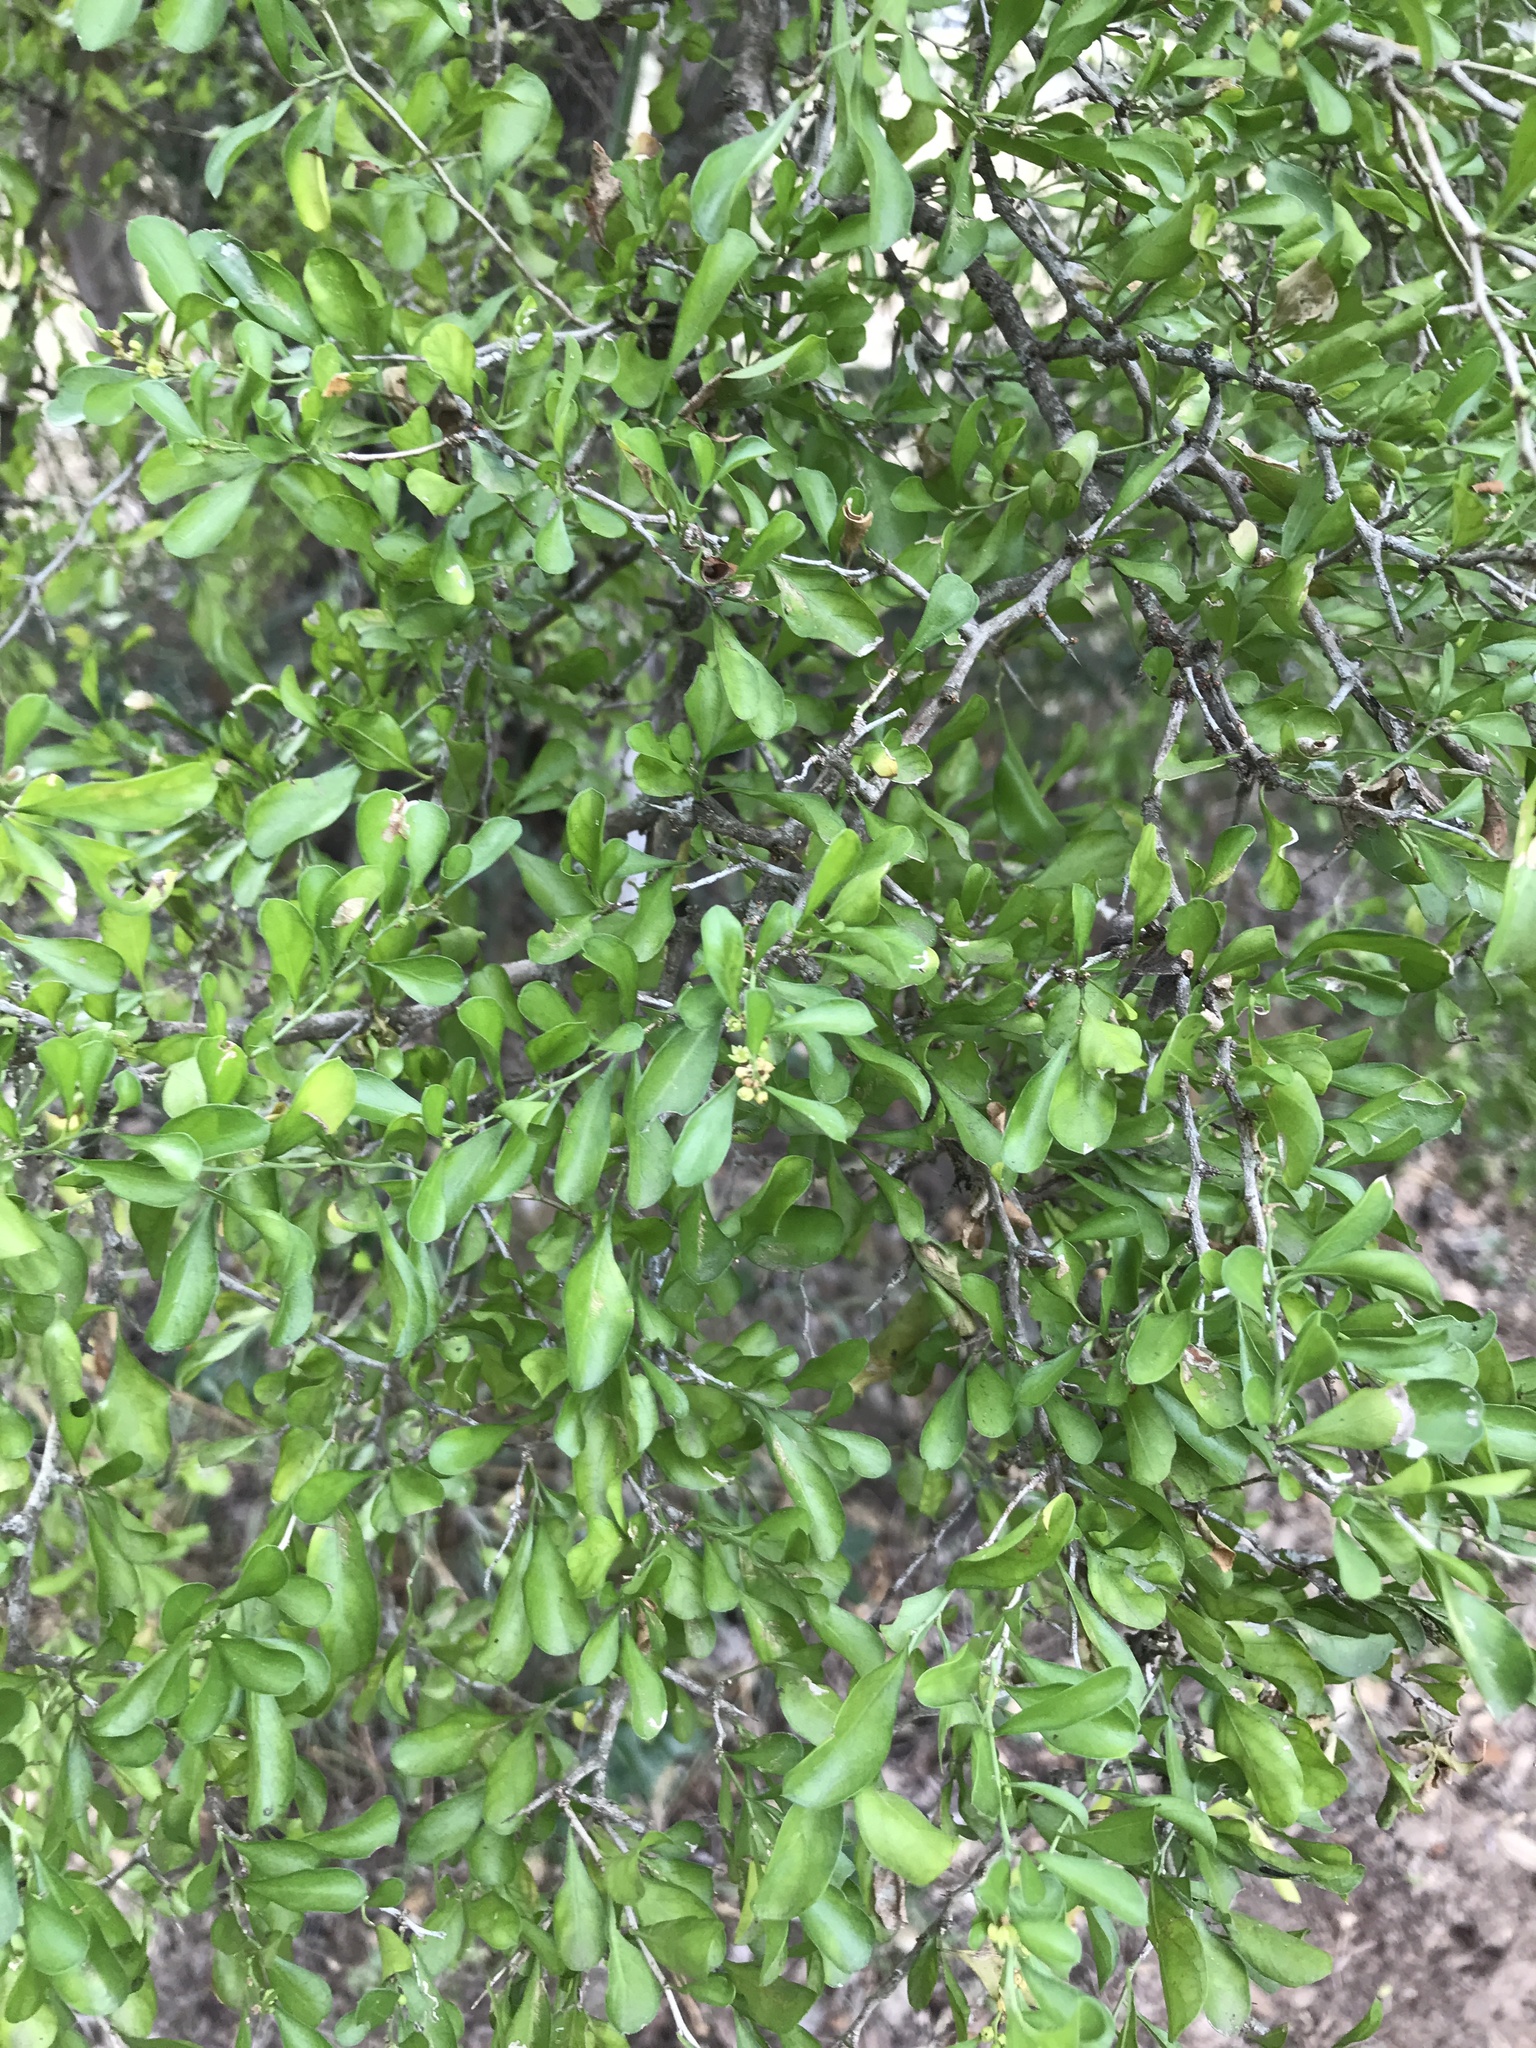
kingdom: Plantae
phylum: Tracheophyta
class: Magnoliopsida
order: Rosales
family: Rhamnaceae
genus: Condalia
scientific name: Condalia hookeri
